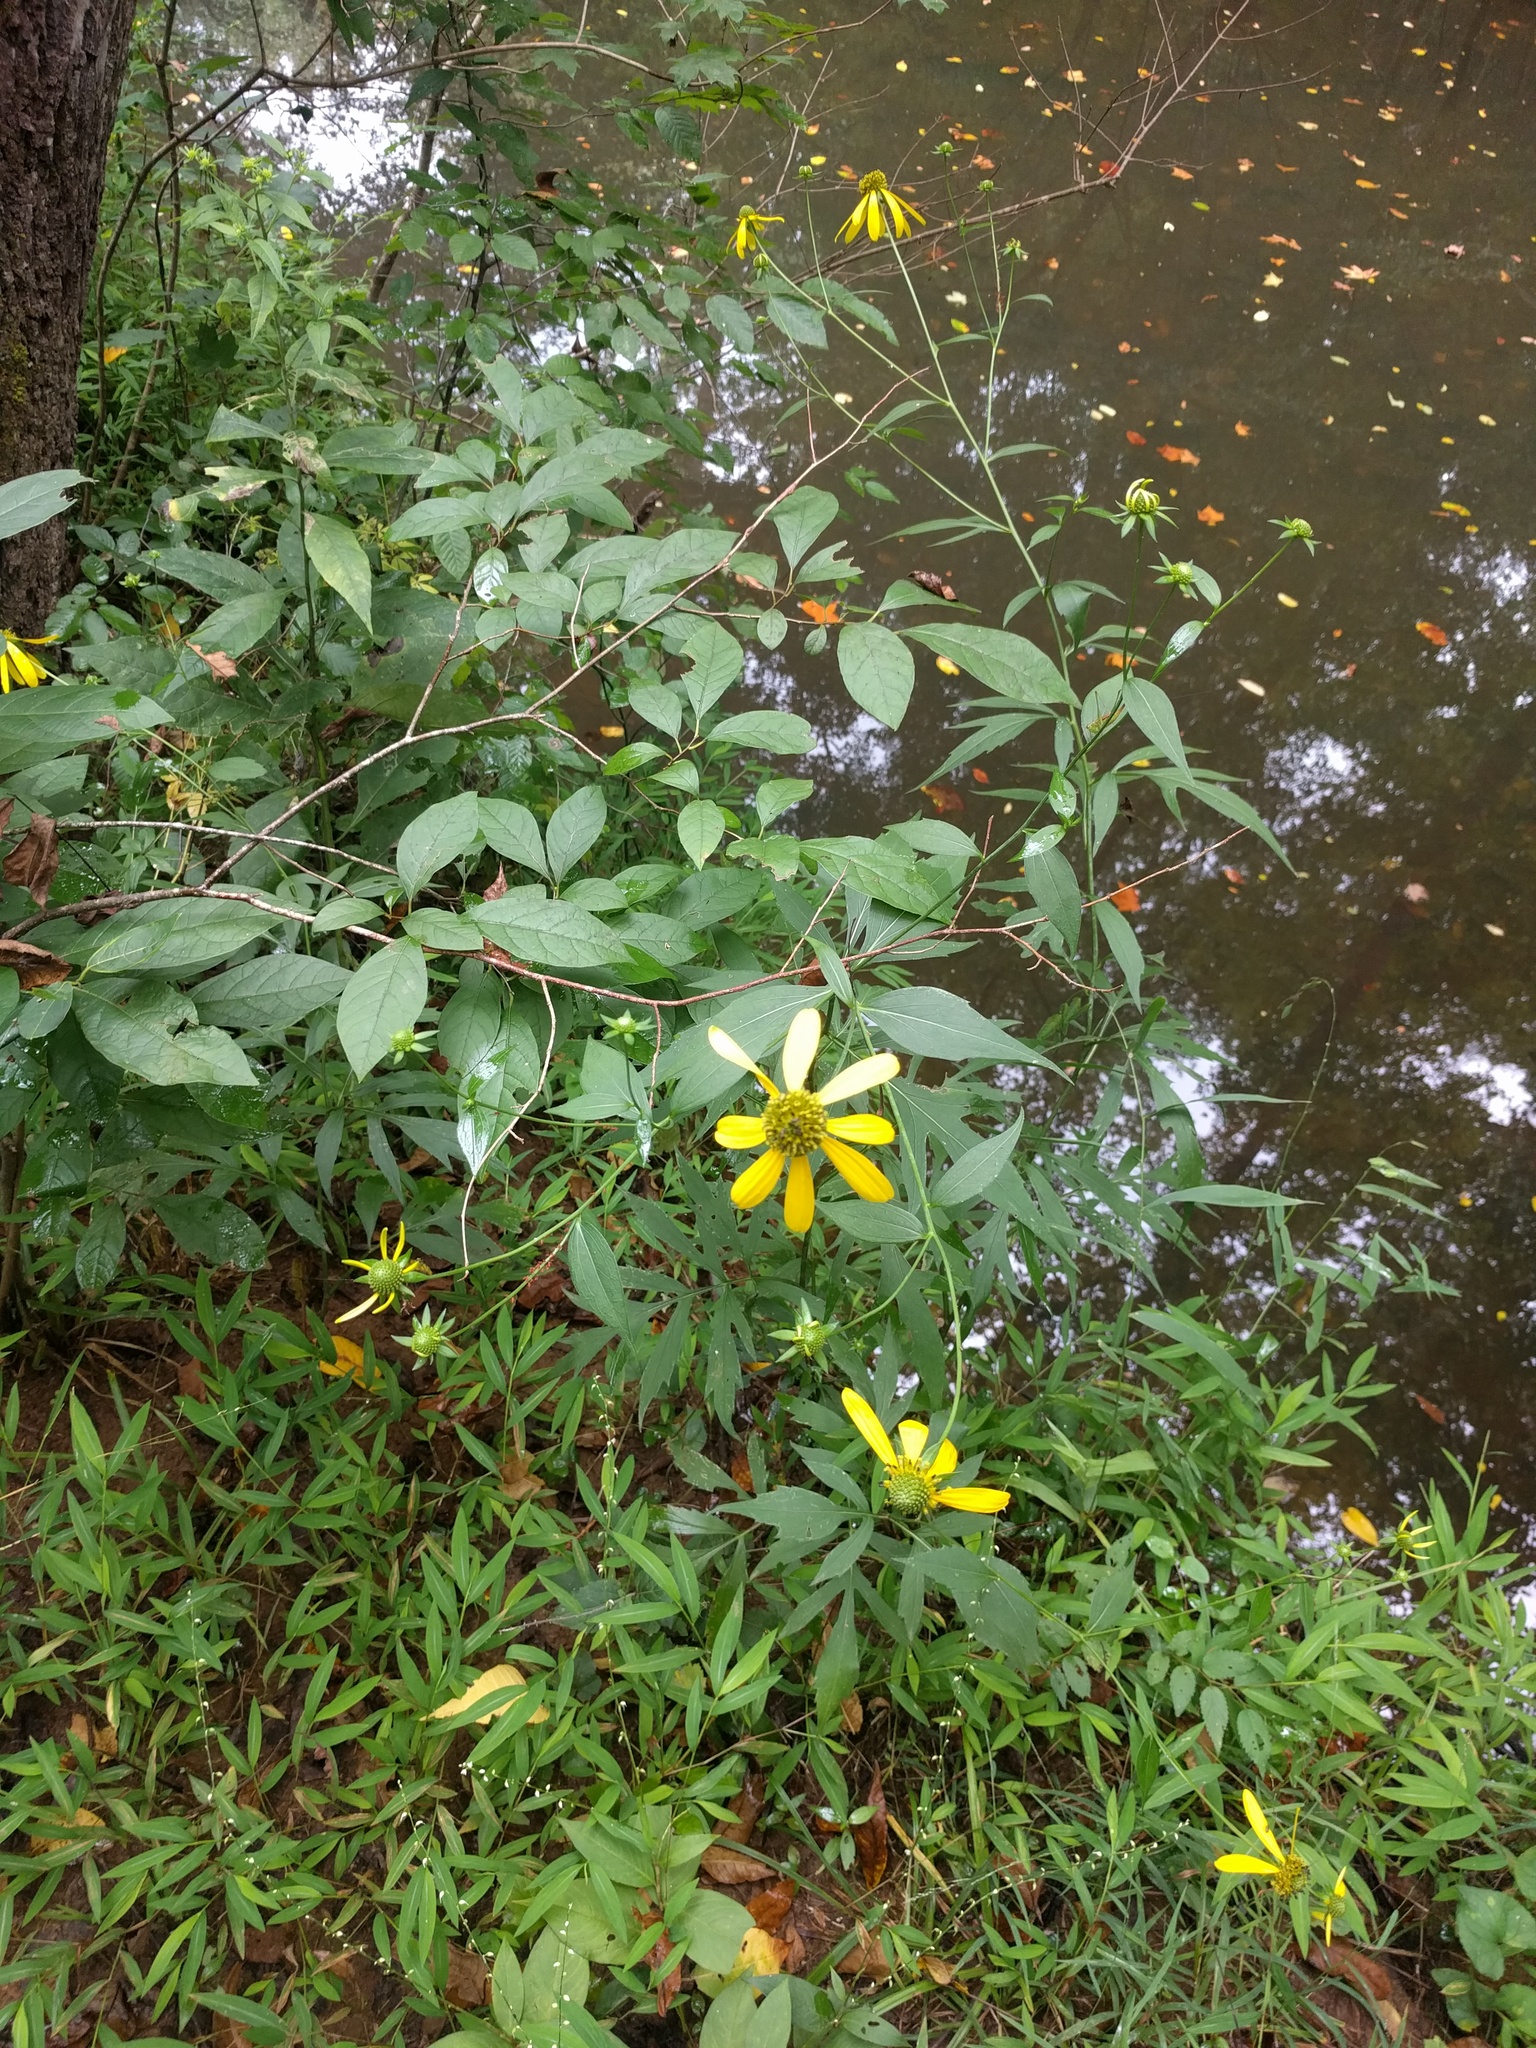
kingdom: Plantae
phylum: Tracheophyta
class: Magnoliopsida
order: Asterales
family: Asteraceae
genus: Rudbeckia
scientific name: Rudbeckia laciniata
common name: Coneflower
